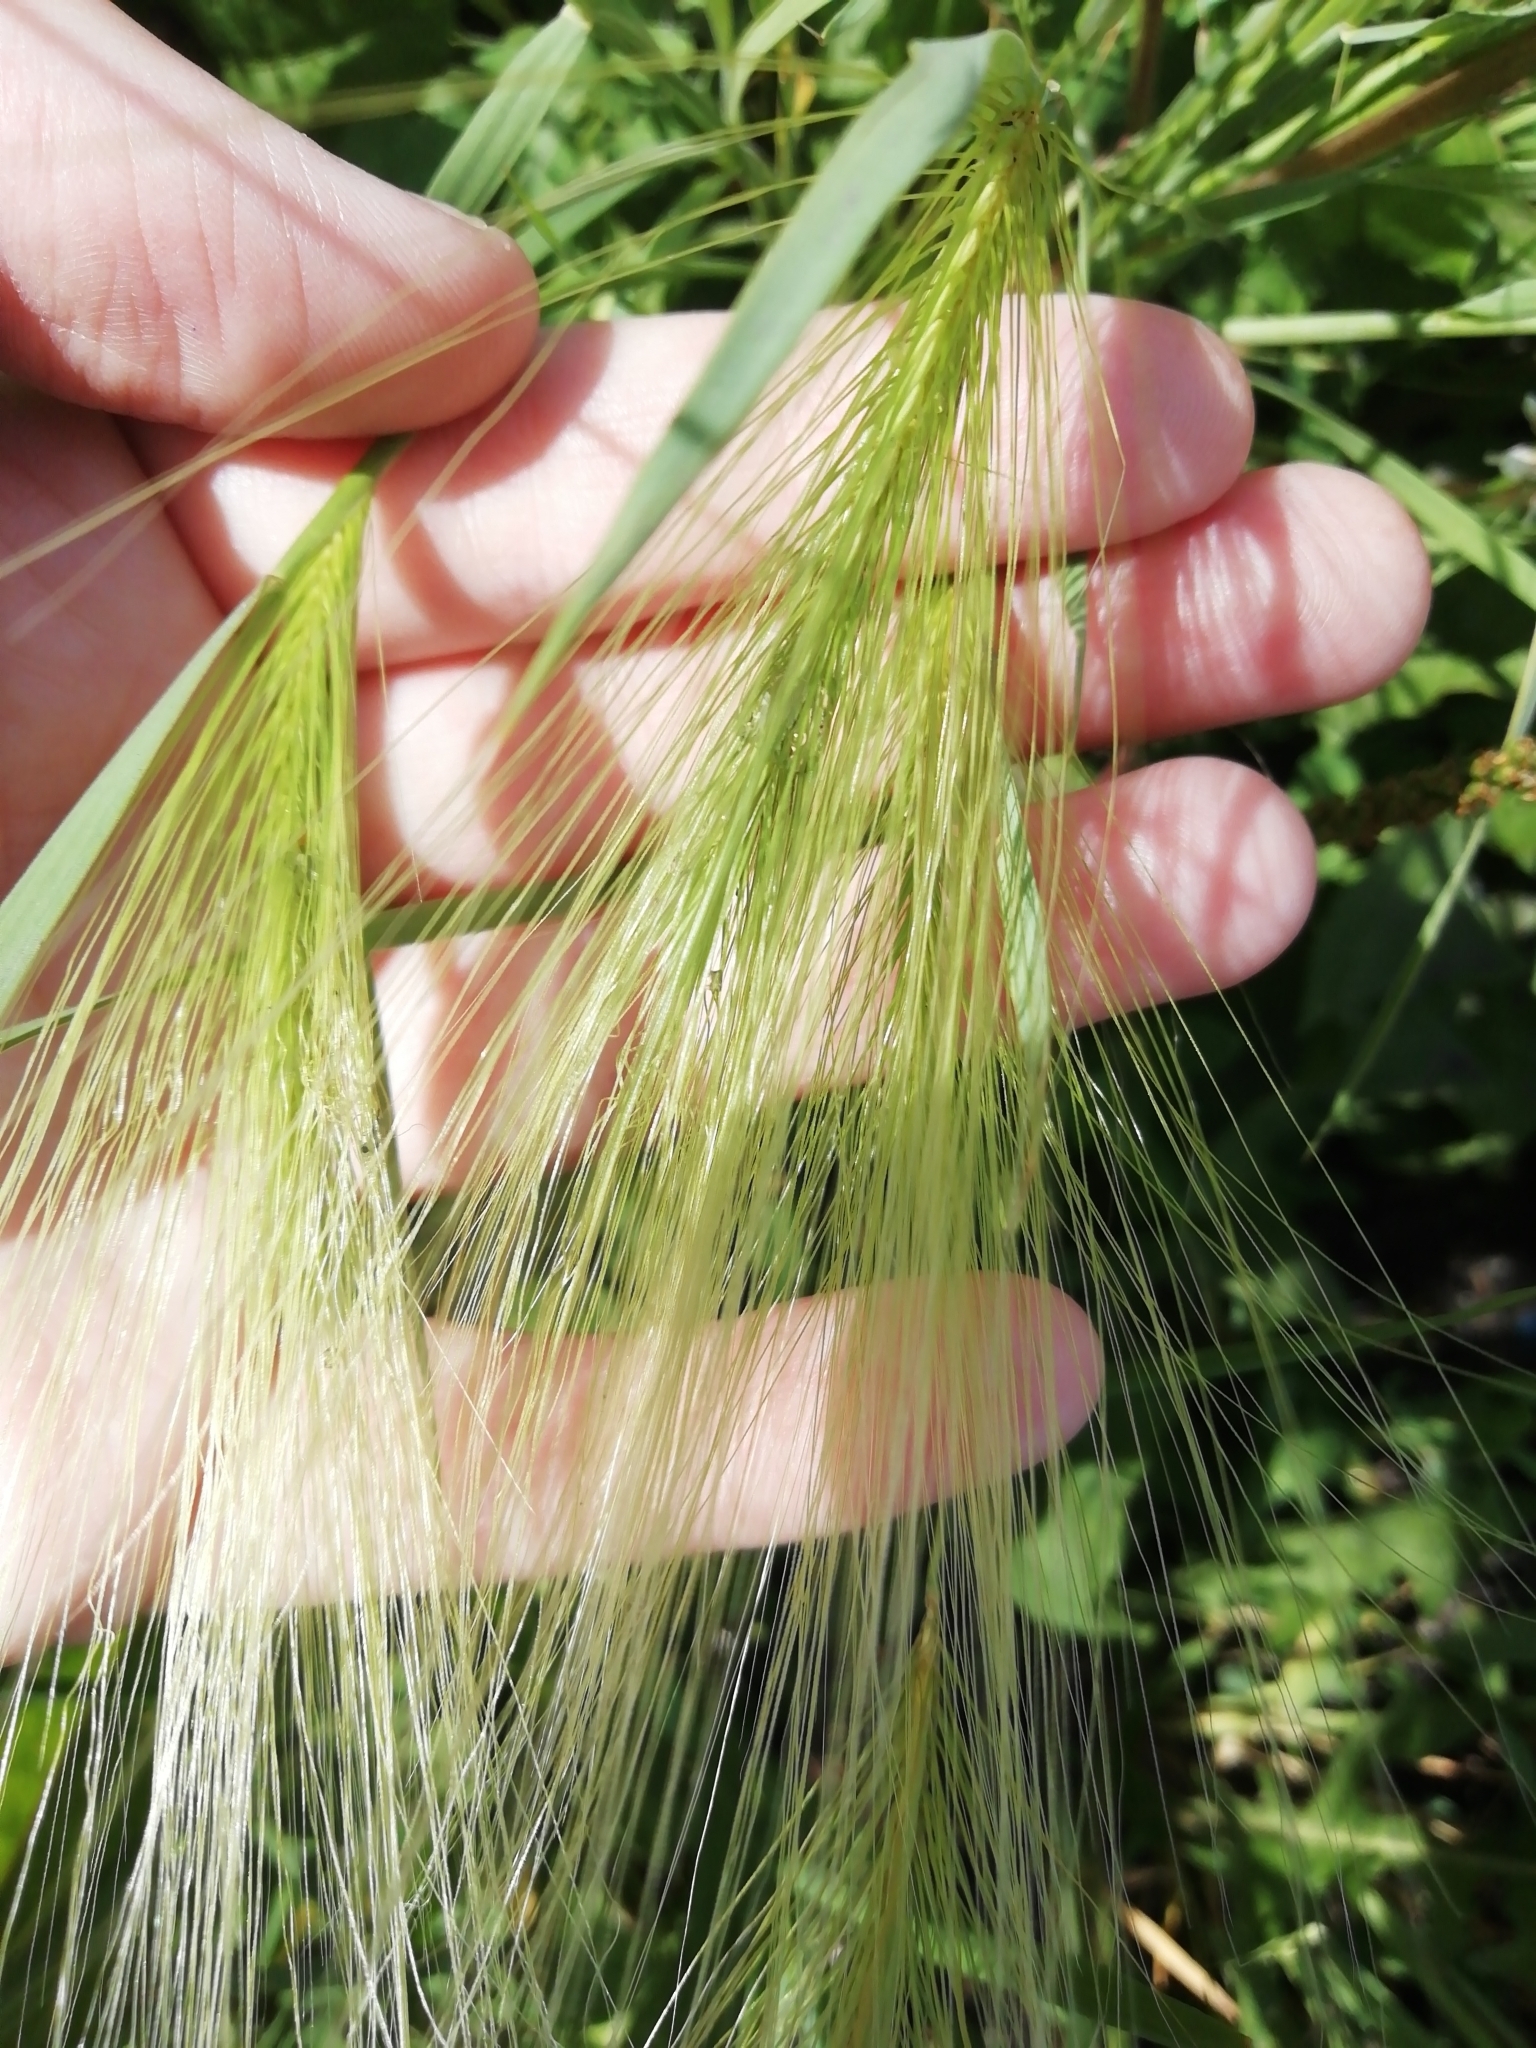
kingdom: Plantae
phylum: Tracheophyta
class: Liliopsida
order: Poales
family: Poaceae
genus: Hordeum
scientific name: Hordeum jubatum
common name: Foxtail barley
